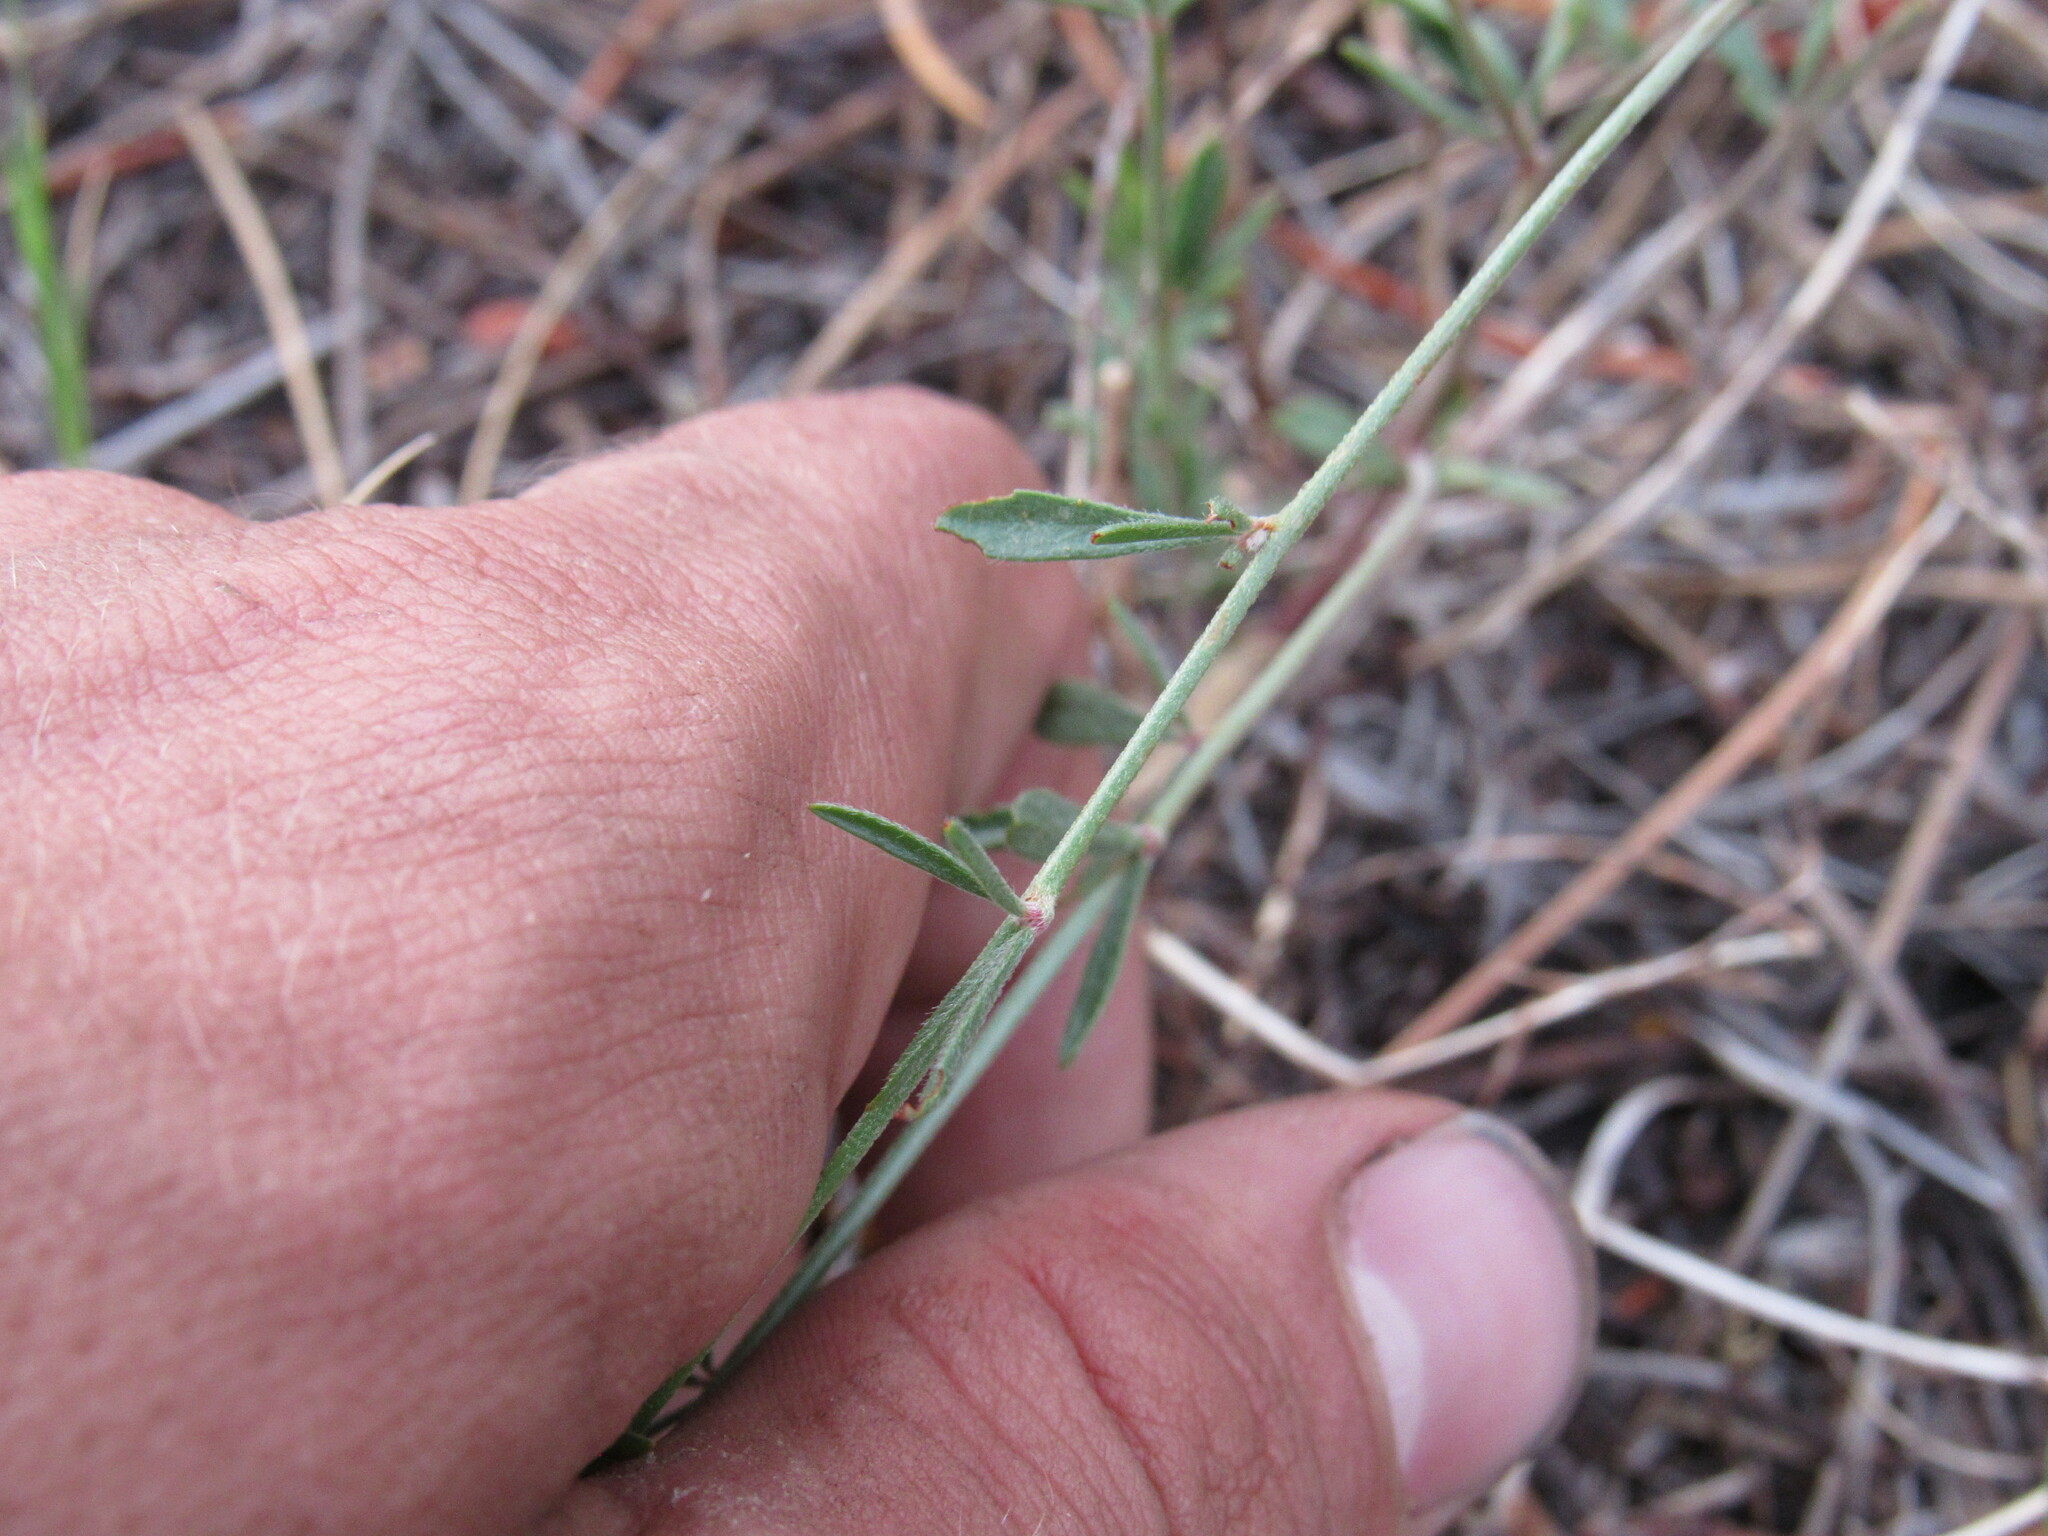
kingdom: Plantae
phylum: Tracheophyta
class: Magnoliopsida
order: Fabales
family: Fabaceae
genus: Acmispon
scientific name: Acmispon wrightii
